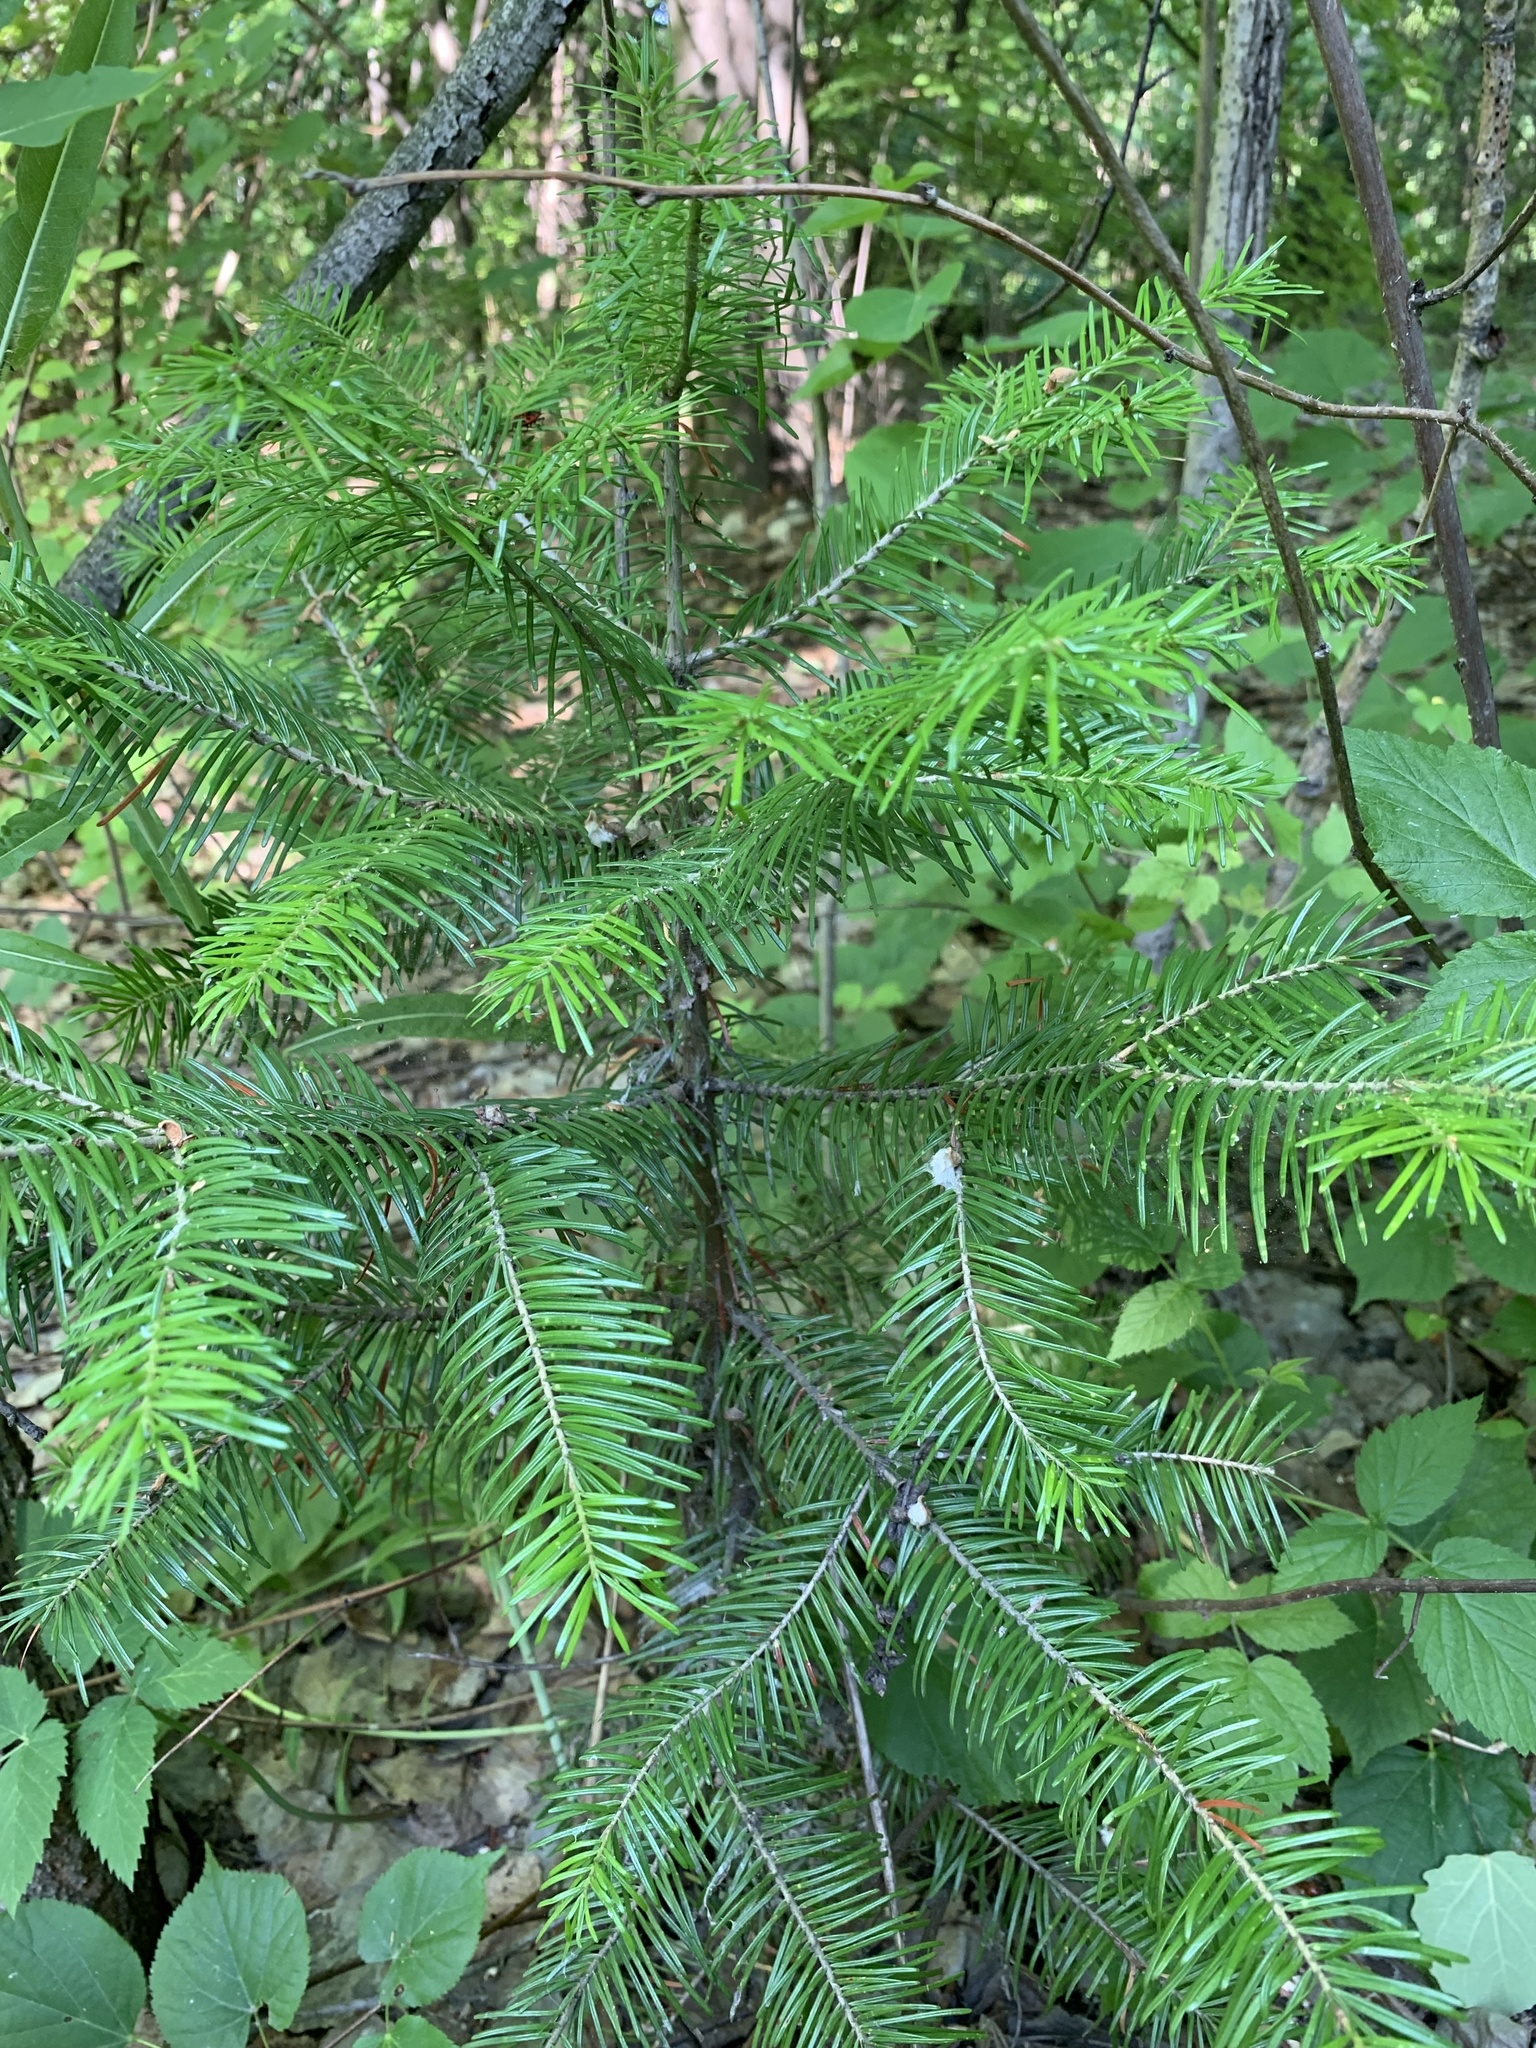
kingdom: Plantae
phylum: Tracheophyta
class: Pinopsida
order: Pinales
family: Pinaceae
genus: Abies
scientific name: Abies sibirica
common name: Siberian fir
